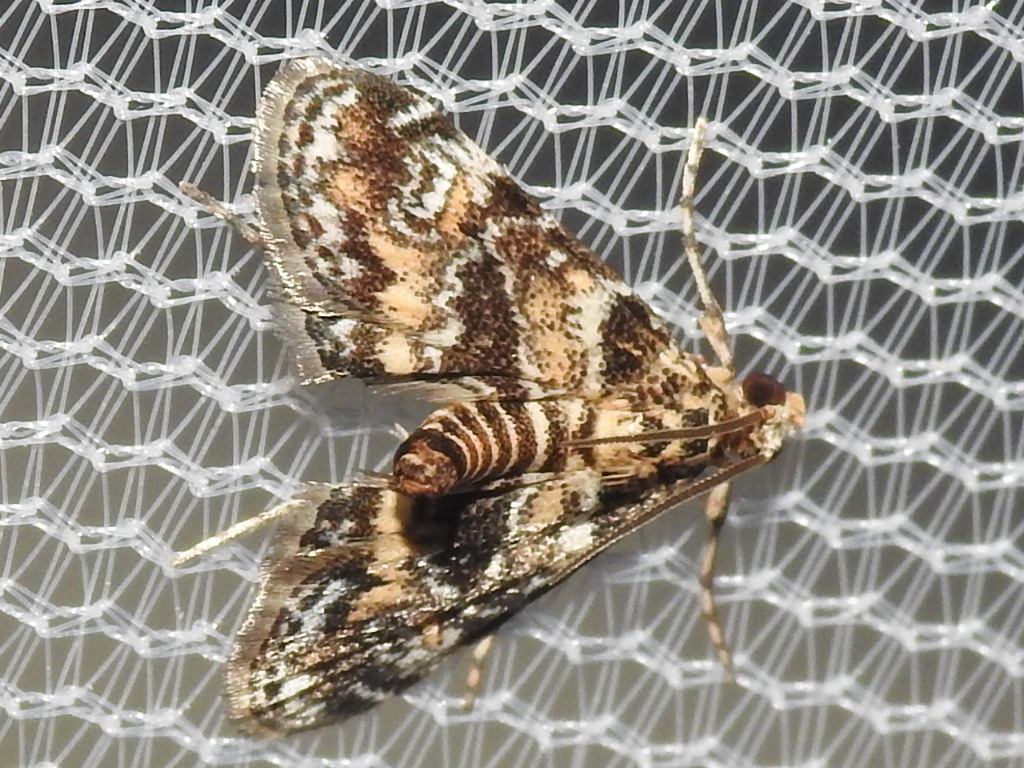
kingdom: Animalia
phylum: Arthropoda
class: Insecta
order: Lepidoptera
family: Crambidae
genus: Elophila
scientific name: Elophila obliteralis
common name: Waterlily leafcutter moth
